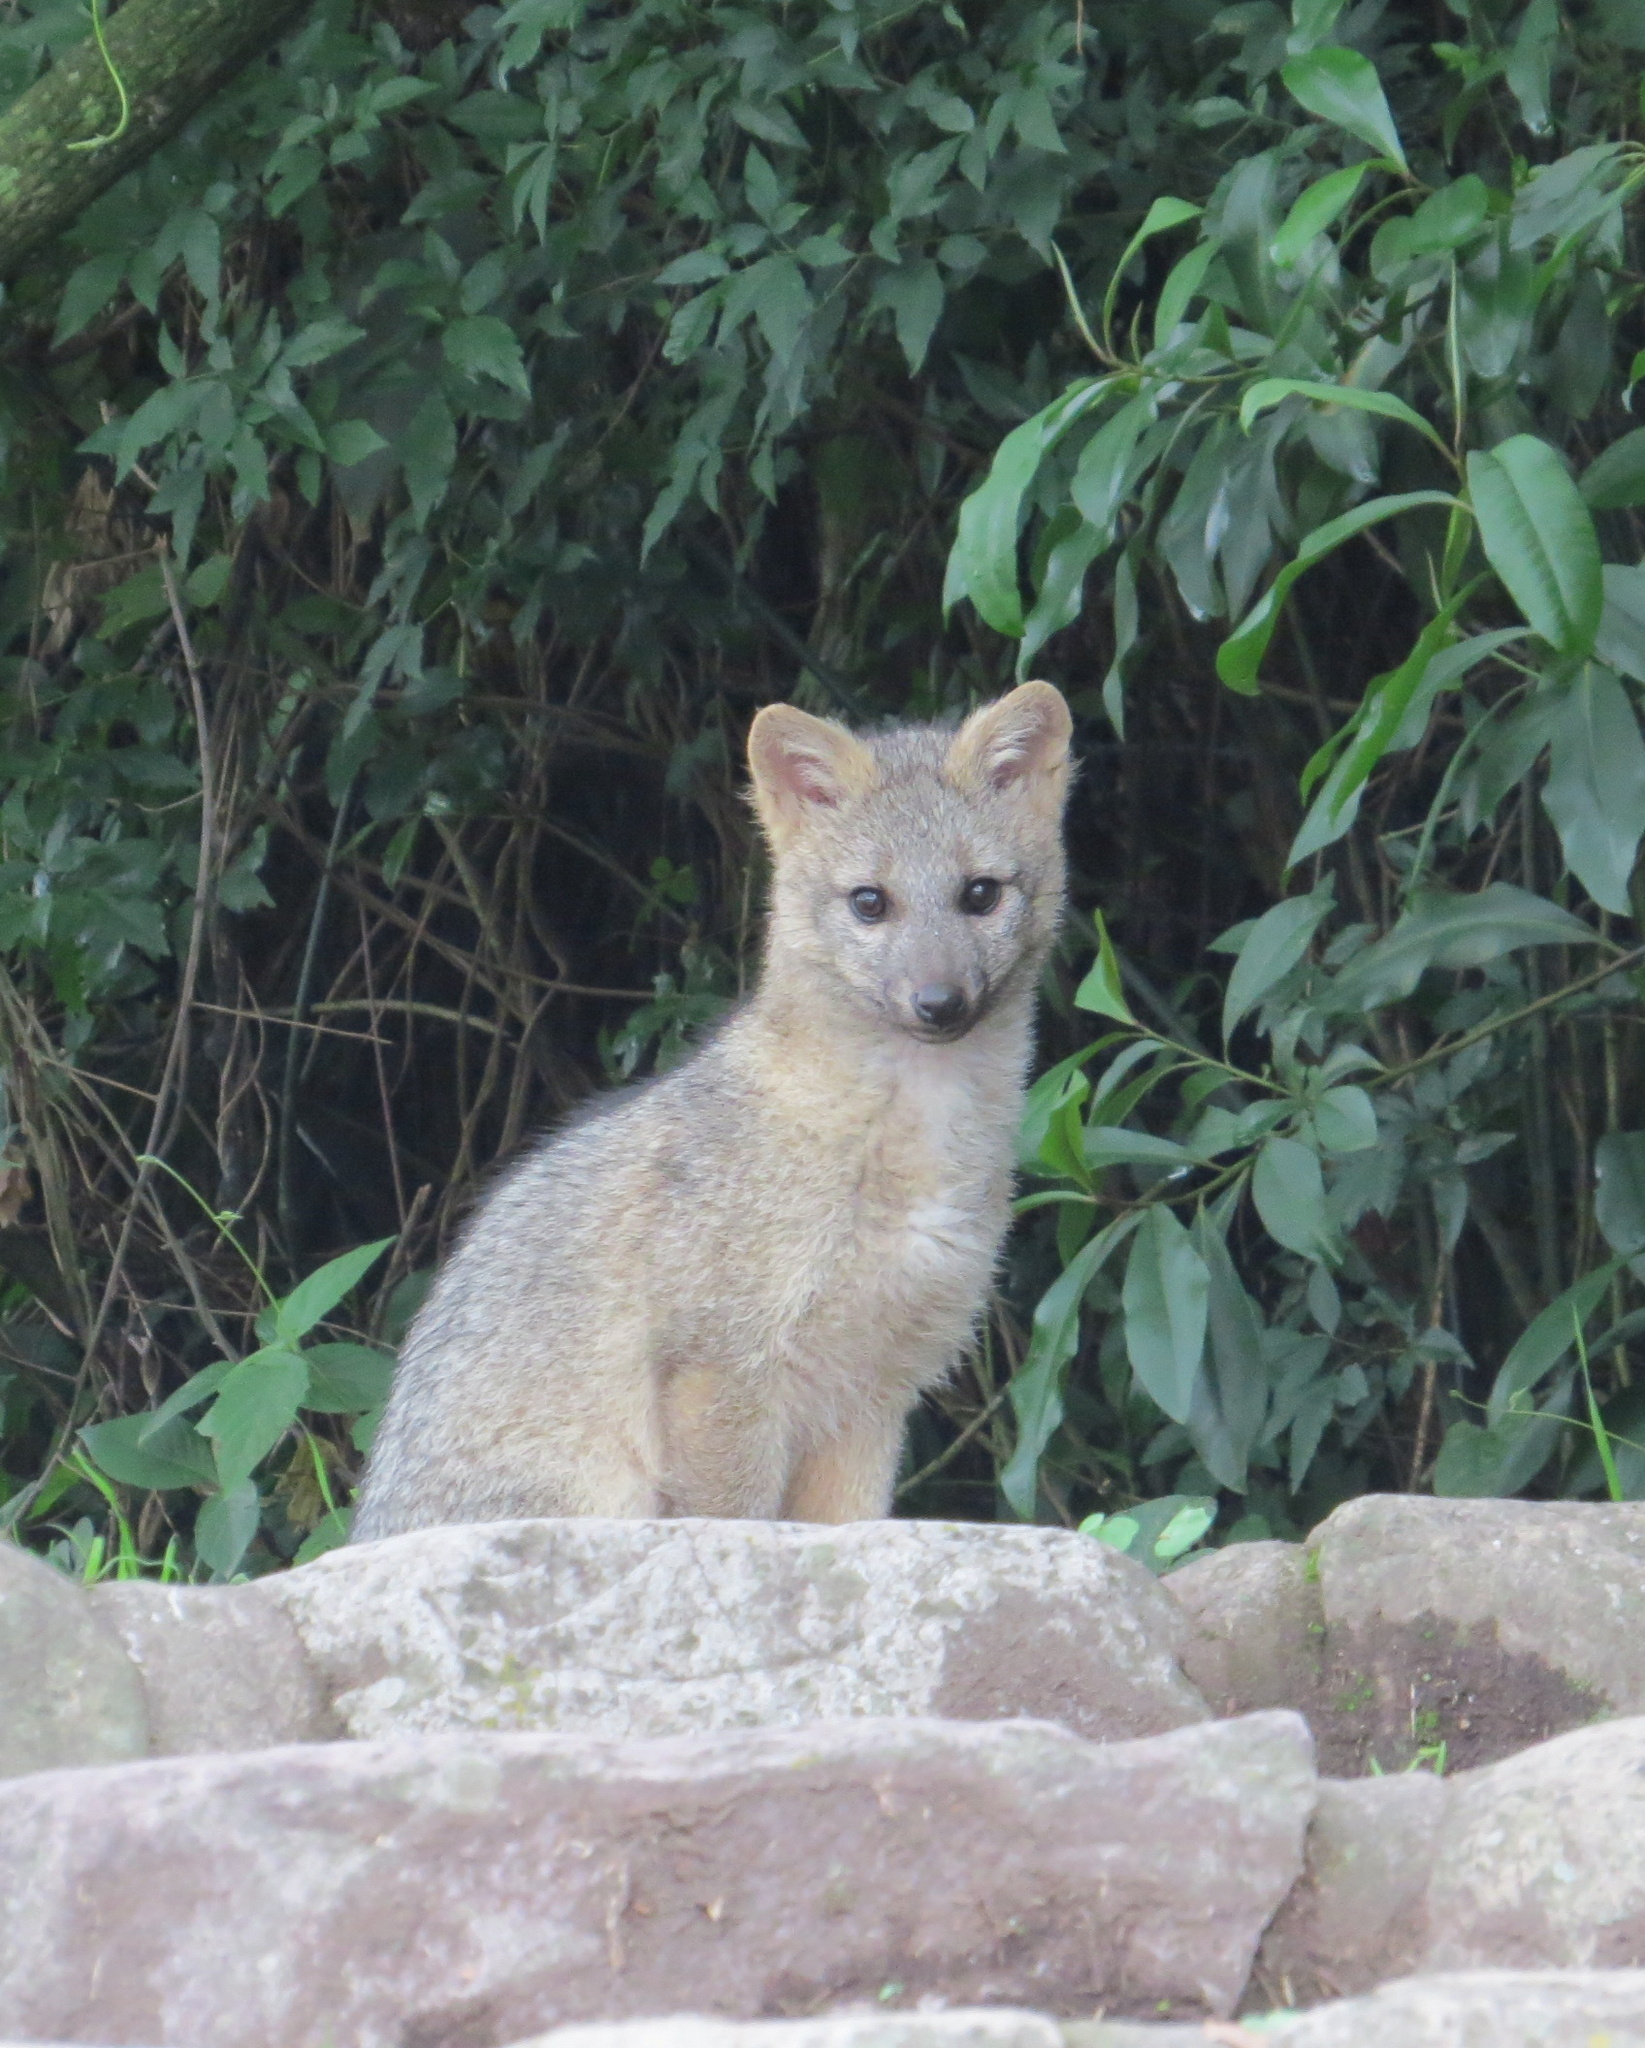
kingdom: Animalia
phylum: Chordata
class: Mammalia
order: Carnivora
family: Canidae
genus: Cerdocyon
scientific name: Cerdocyon thous
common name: Crab-eating fox
